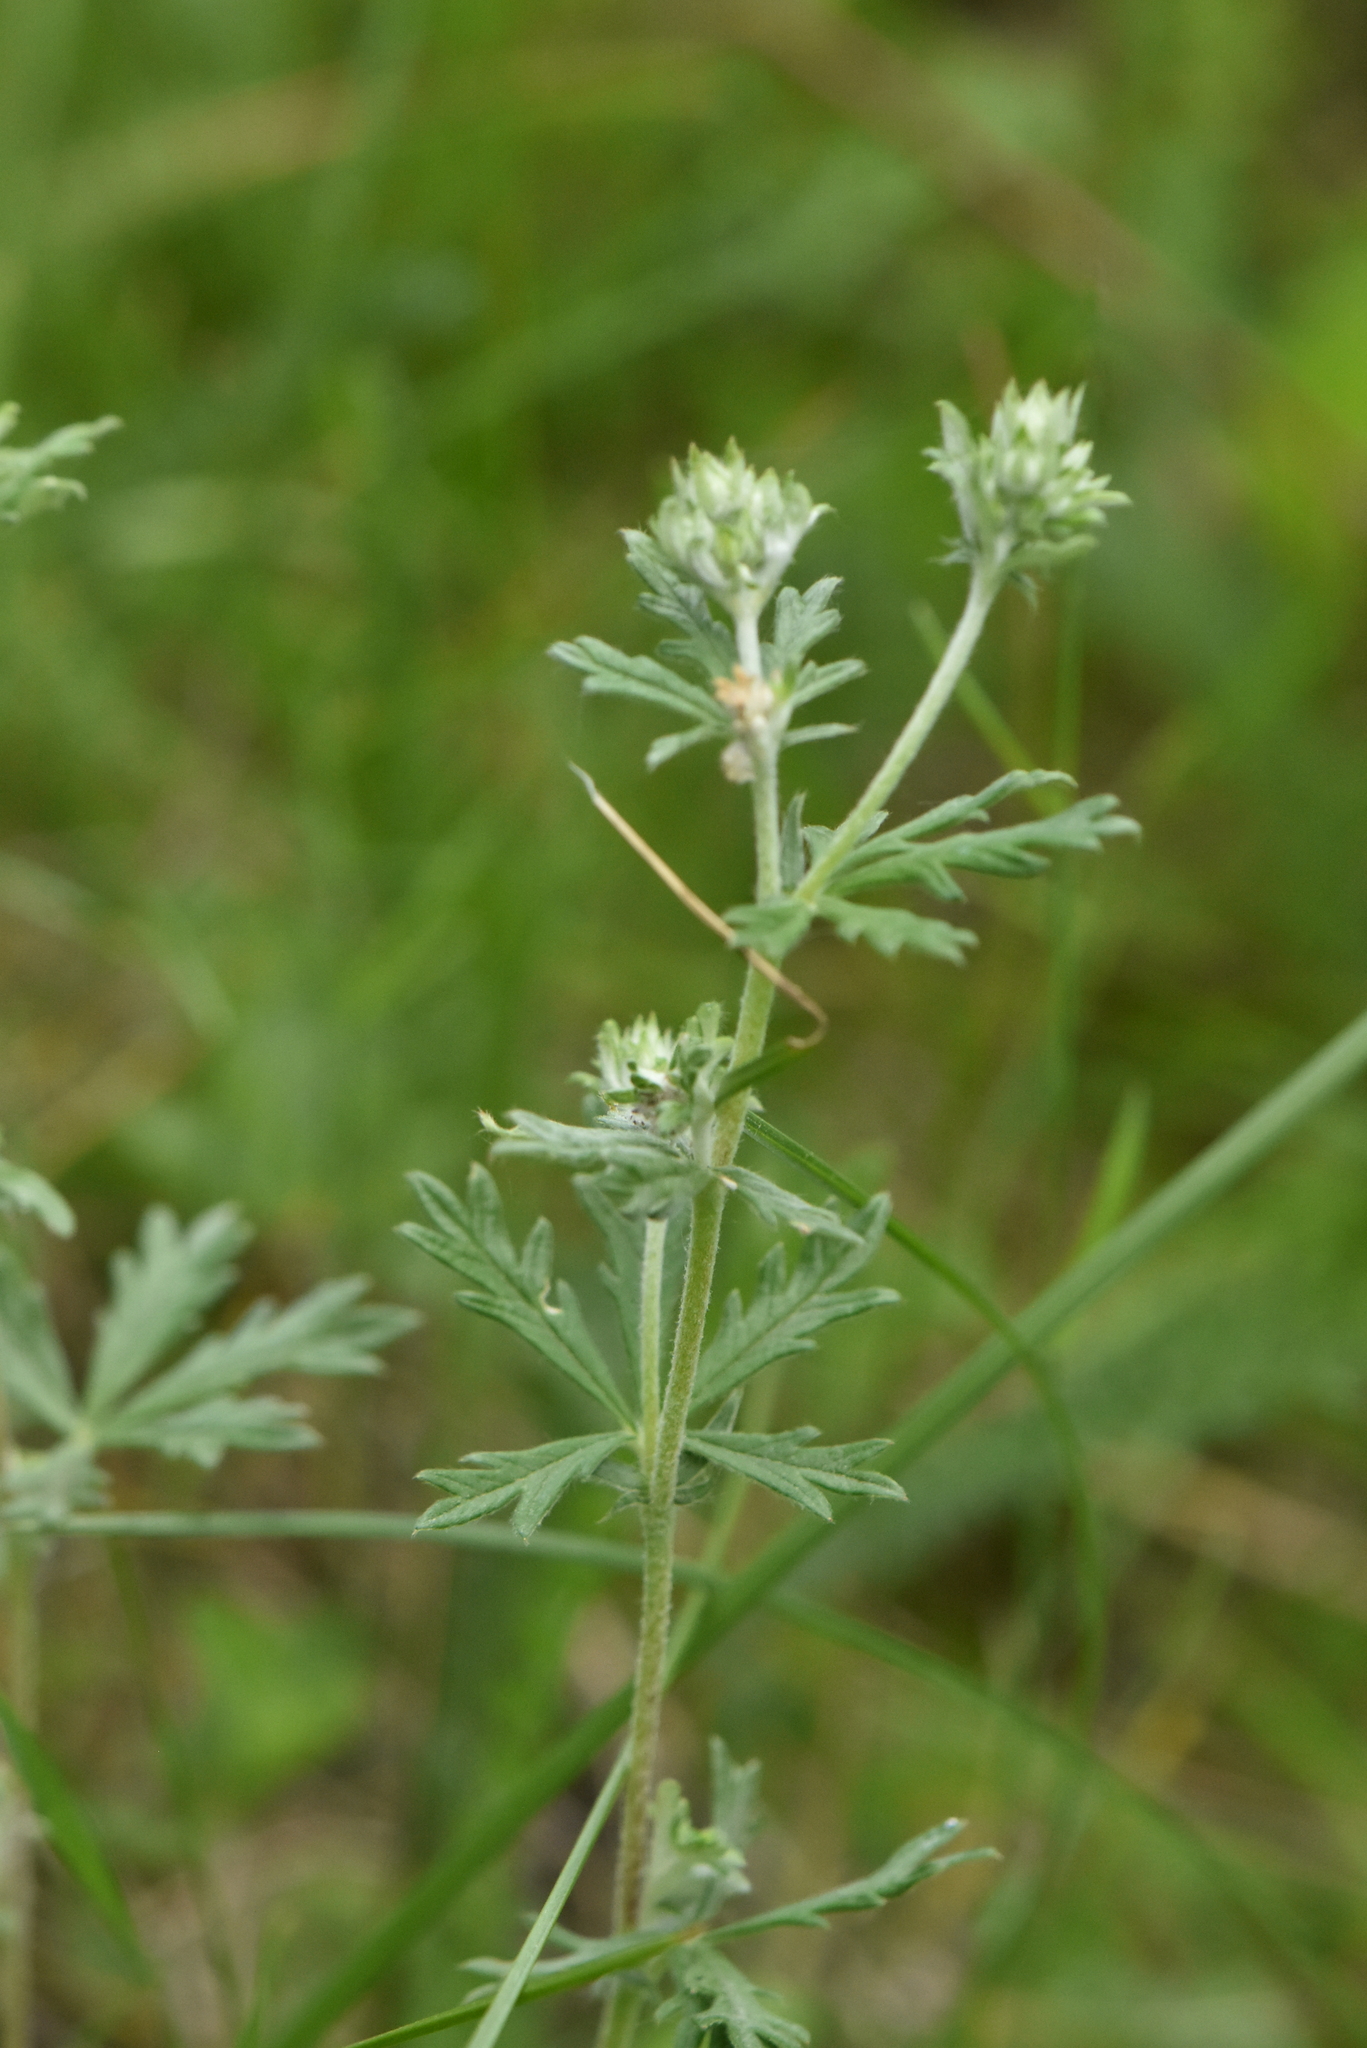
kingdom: Plantae
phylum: Tracheophyta
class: Magnoliopsida
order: Rosales
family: Rosaceae
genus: Potentilla
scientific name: Potentilla argentea
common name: Hoary cinquefoil
